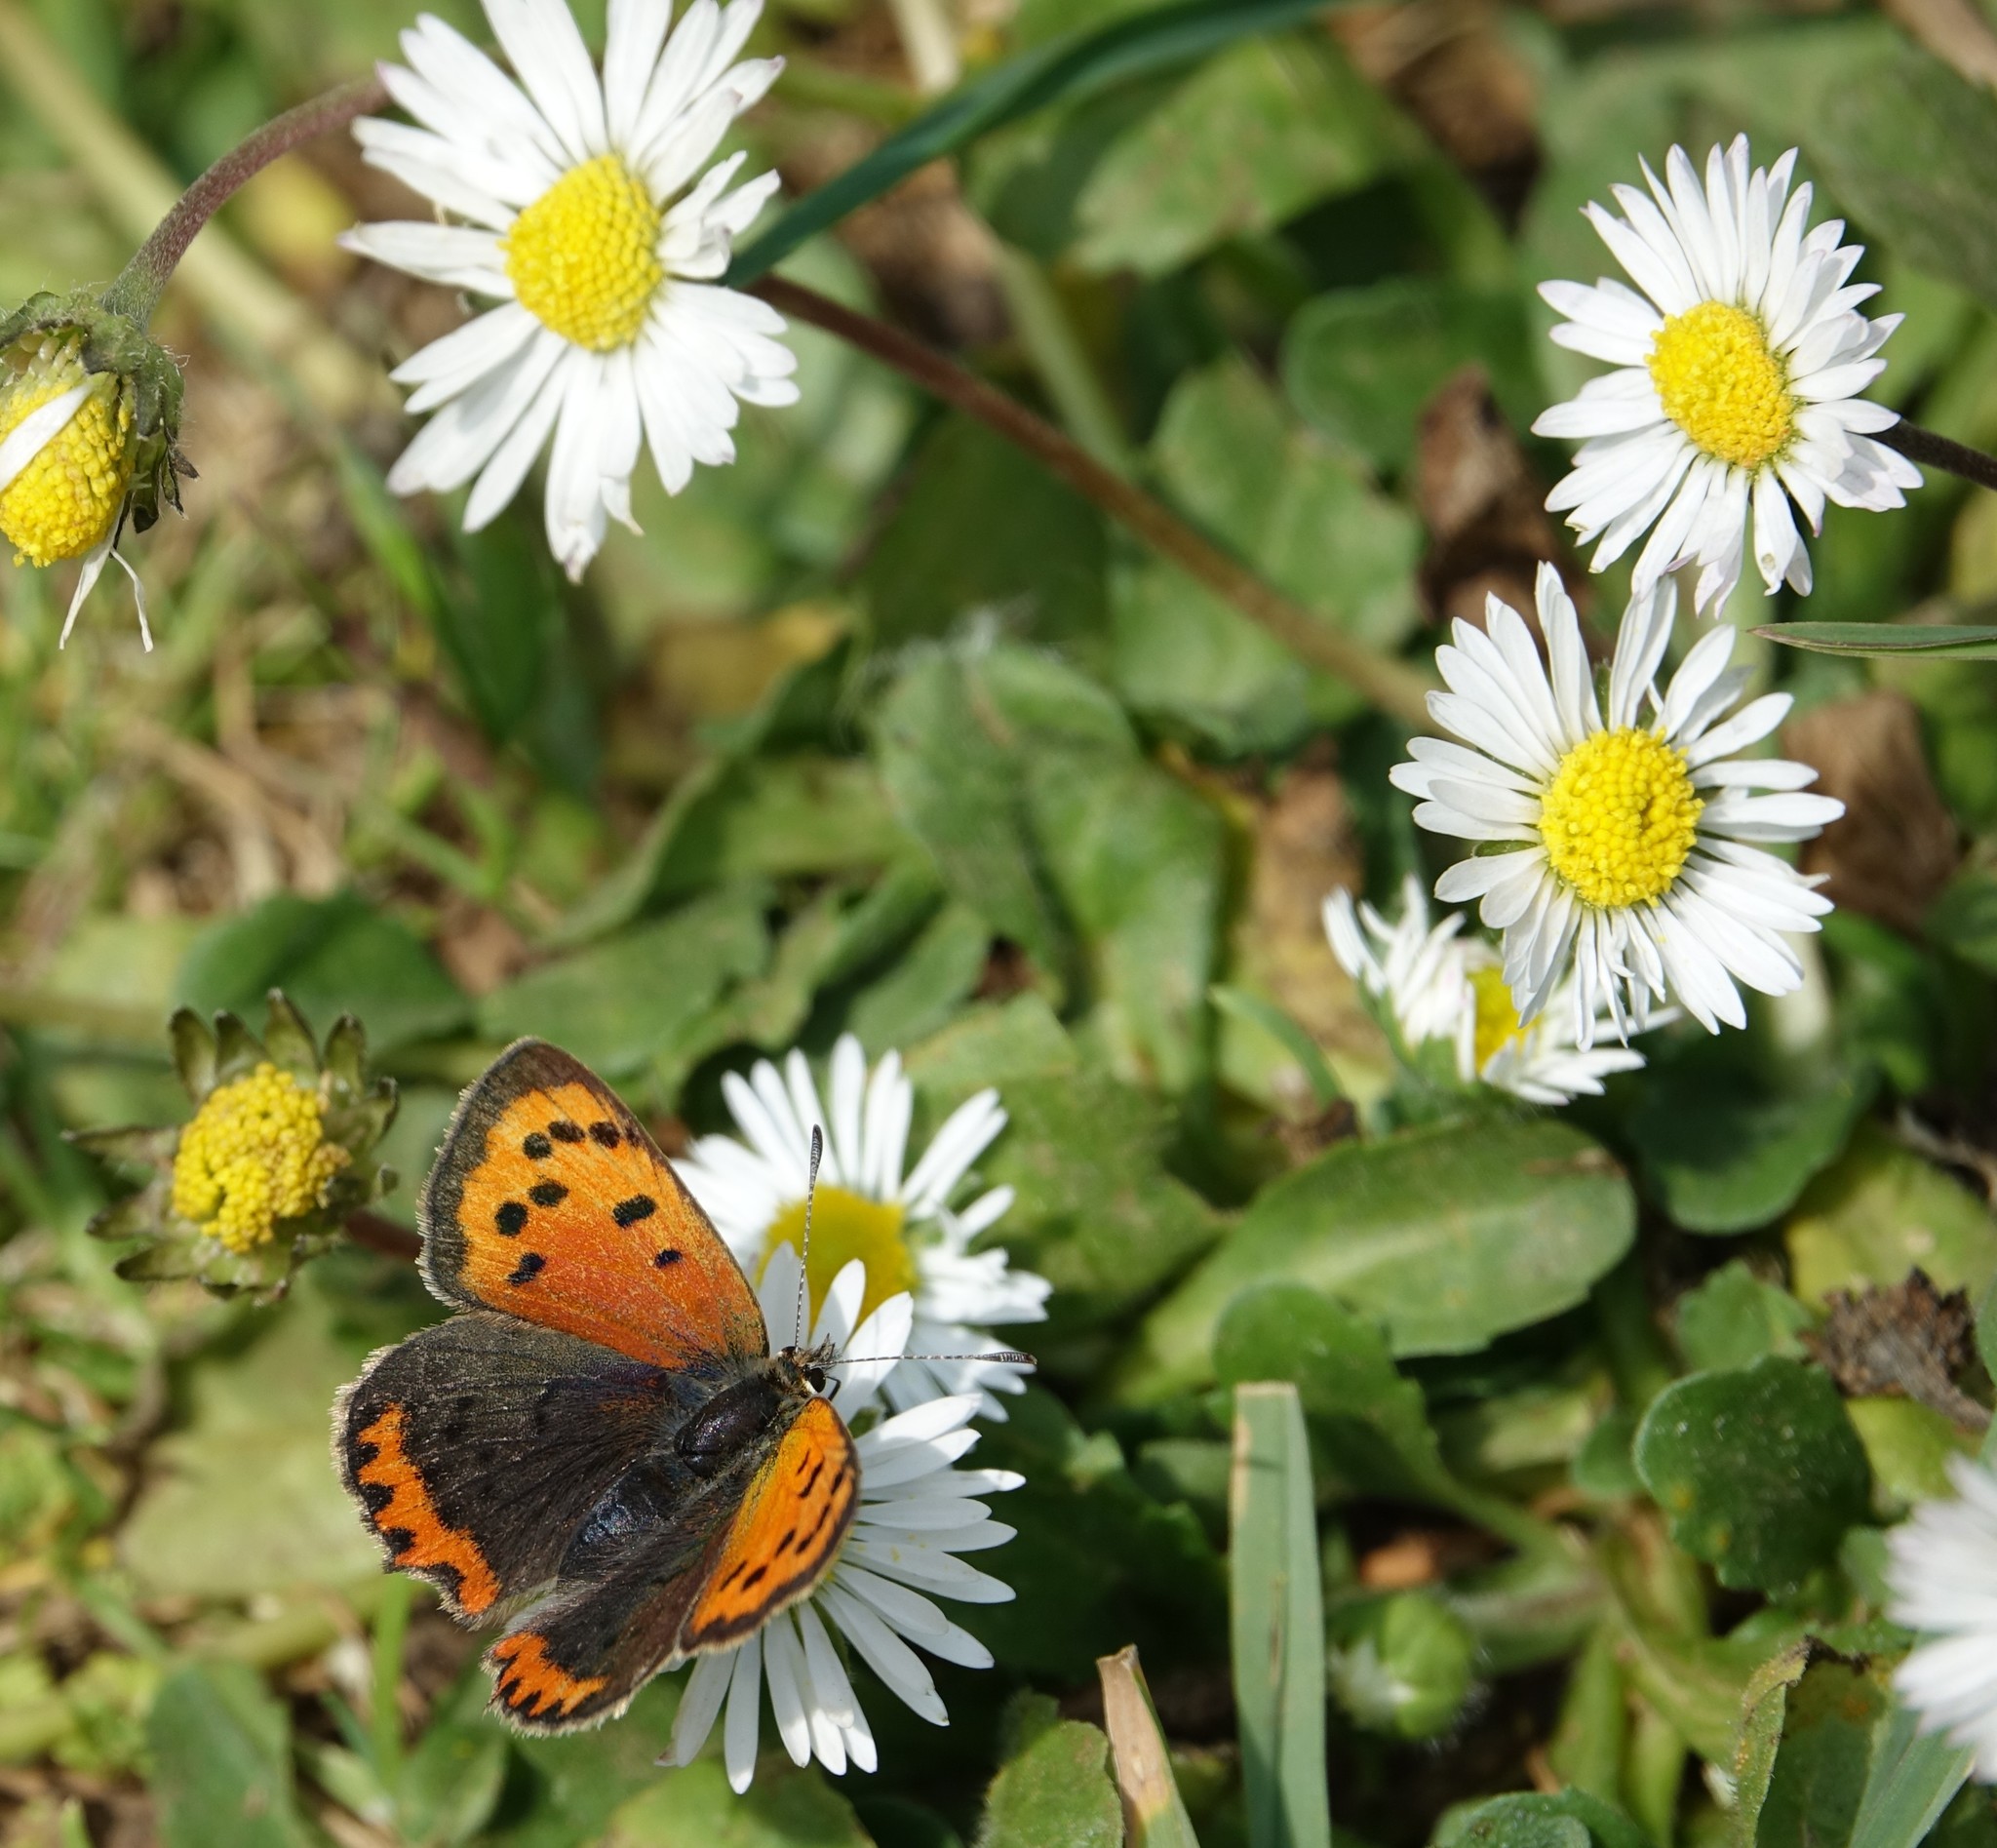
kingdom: Animalia
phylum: Arthropoda
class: Insecta
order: Lepidoptera
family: Lycaenidae
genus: Lycaena
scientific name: Lycaena phlaeas
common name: Small copper
